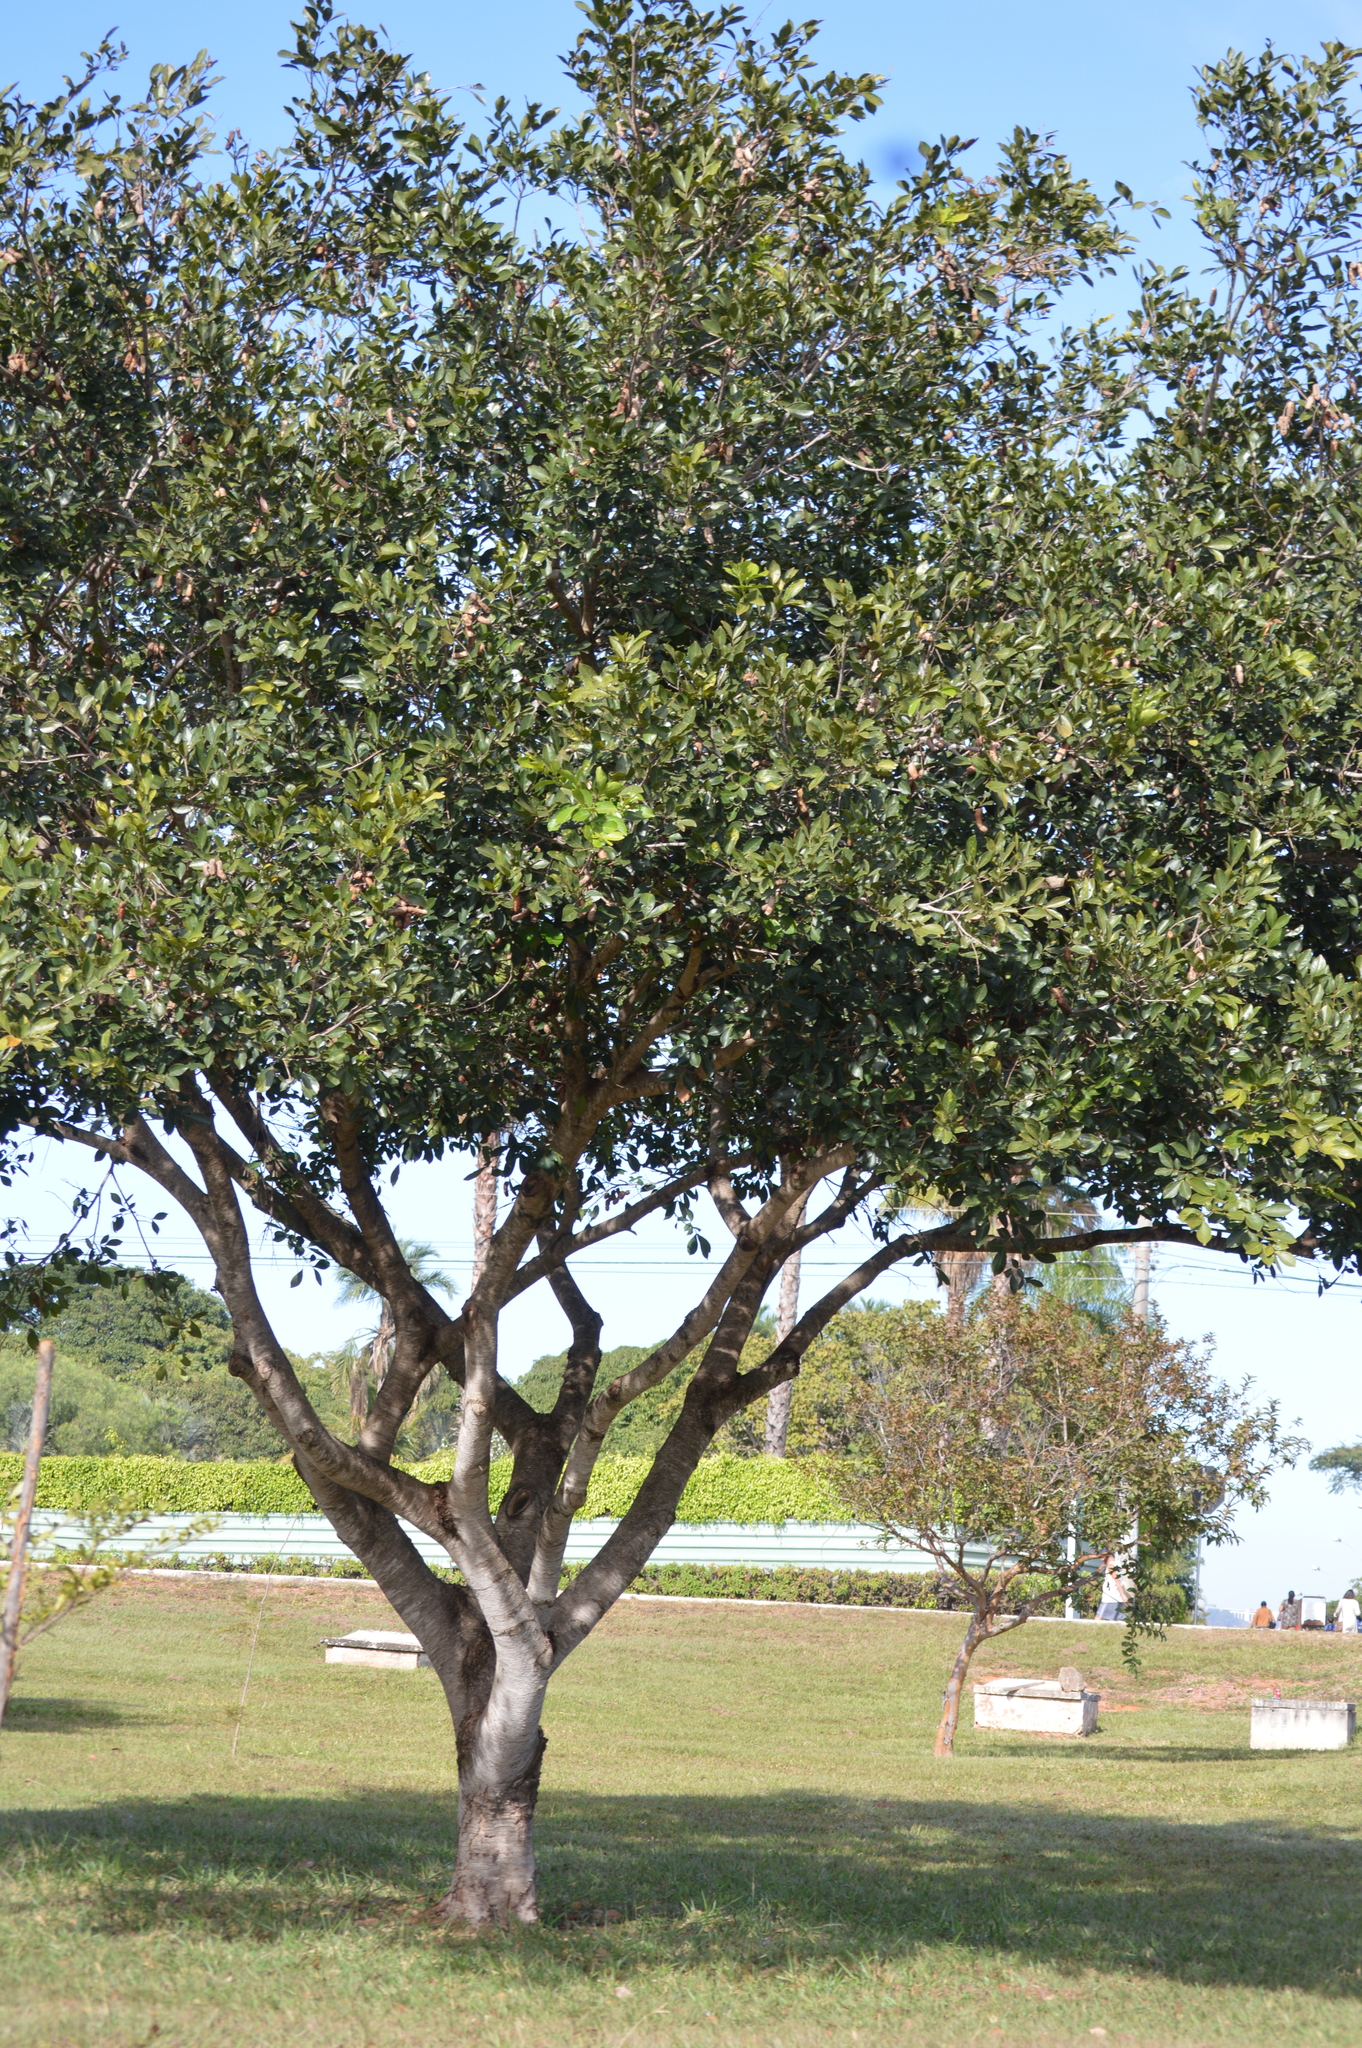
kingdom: Plantae
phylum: Tracheophyta
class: Magnoliopsida
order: Fabales
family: Fabaceae
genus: Inga
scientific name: Inga laurina
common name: Red wood
